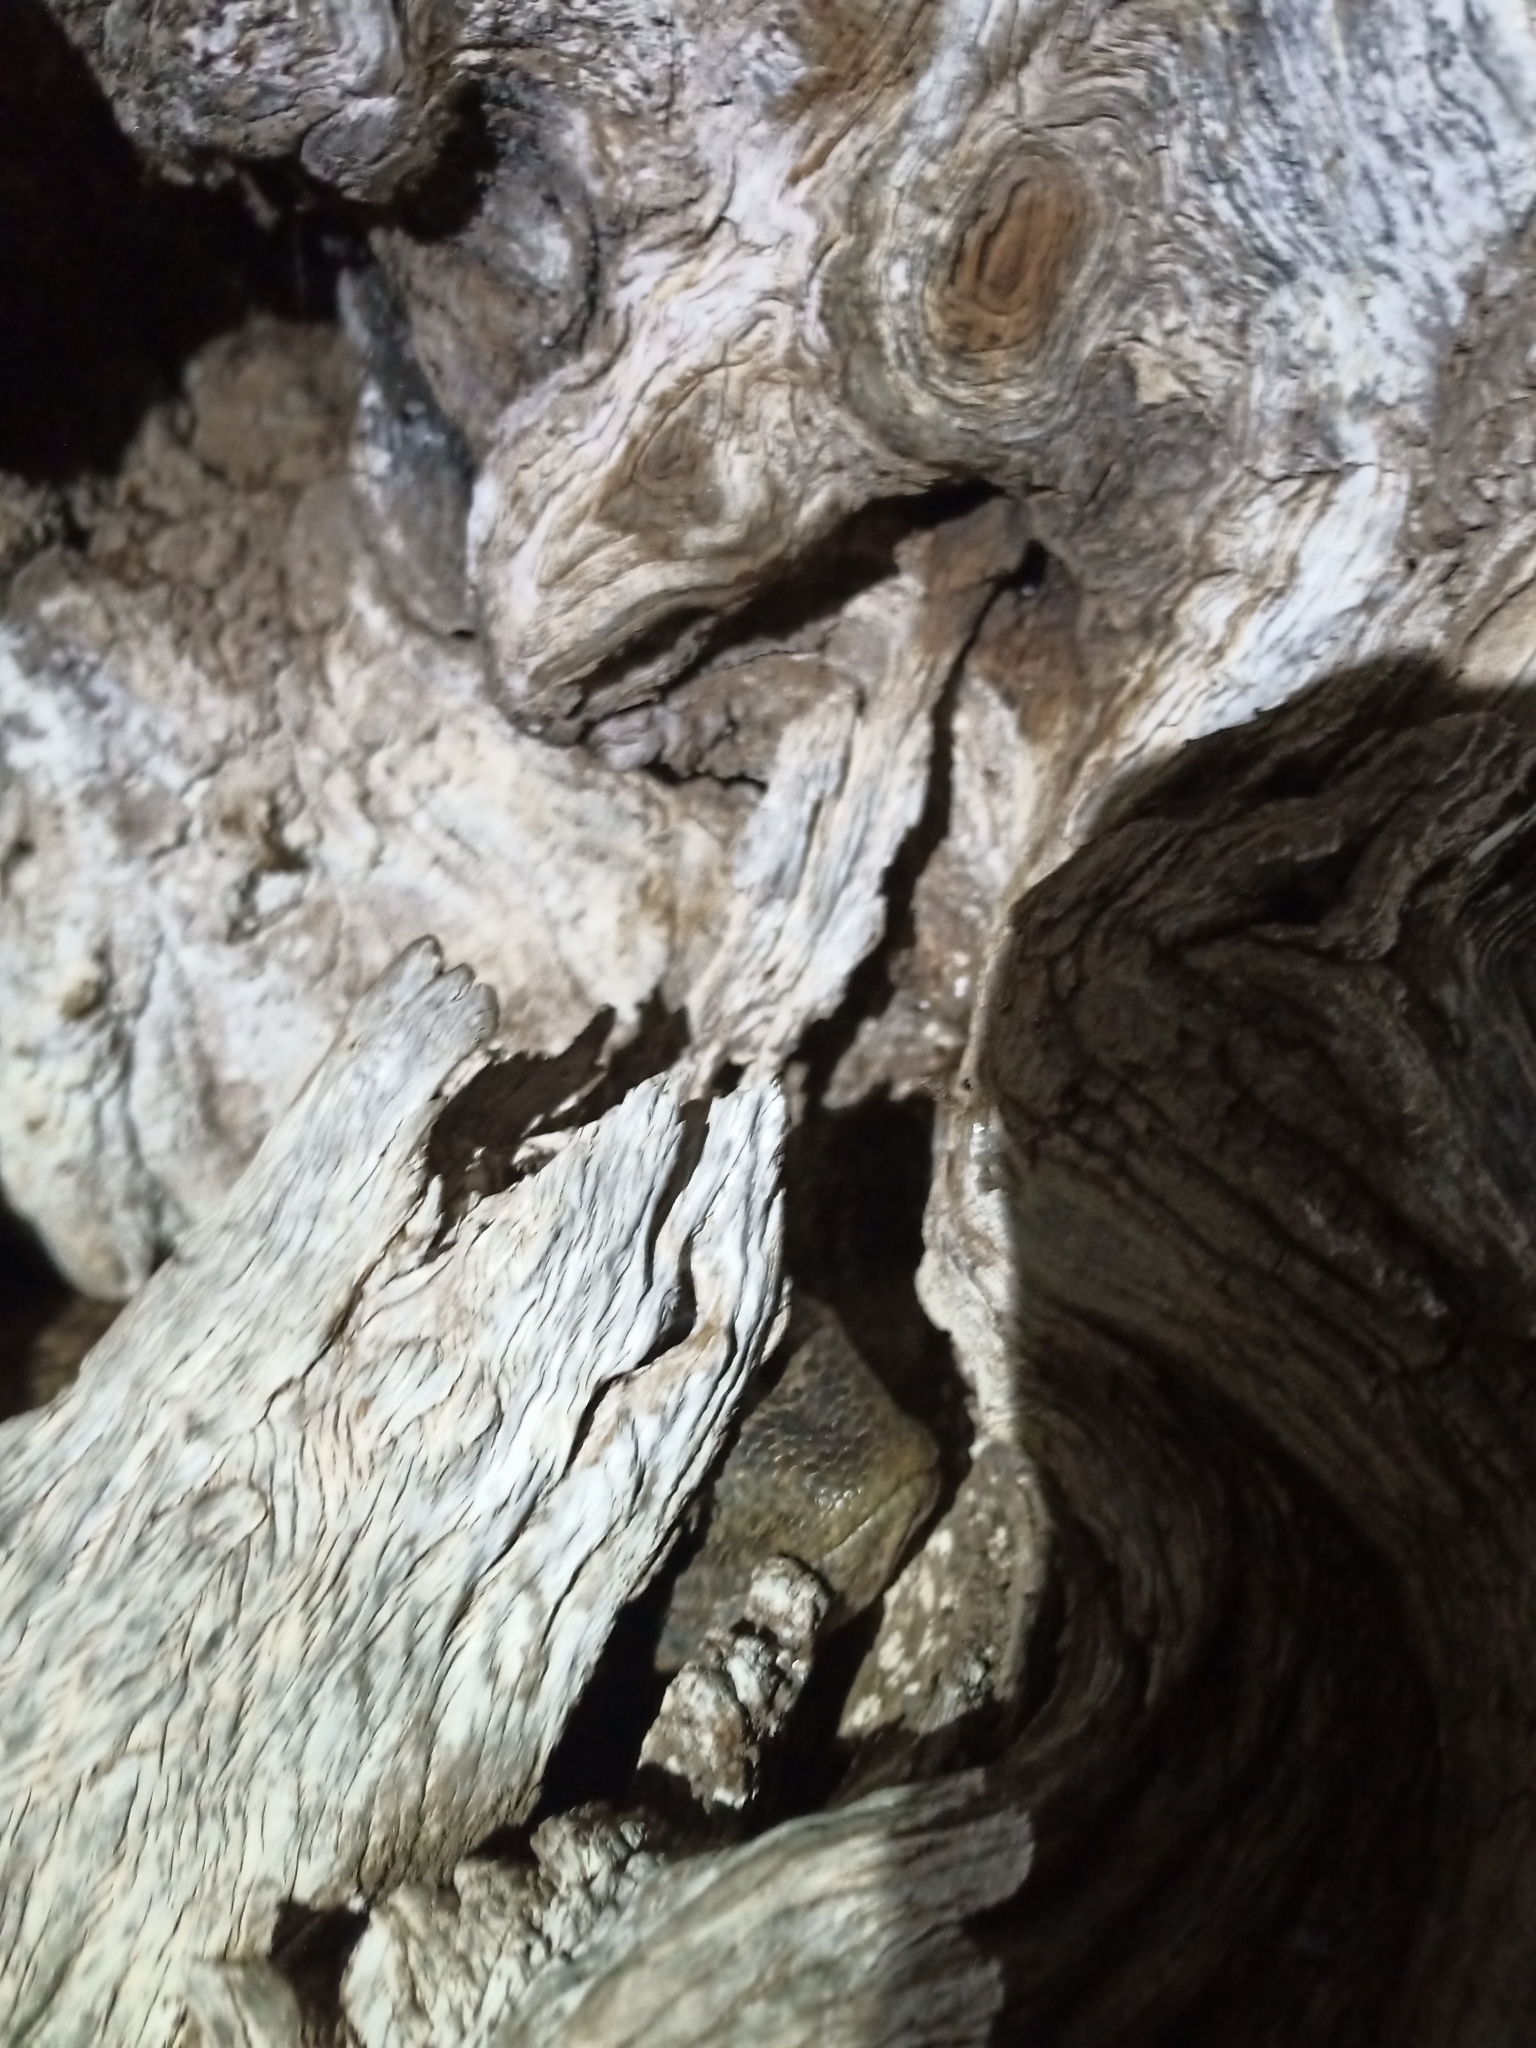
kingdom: Animalia
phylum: Chordata
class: Squamata
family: Varanidae
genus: Varanus
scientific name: Varanus albigularis
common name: White-throated monitor
